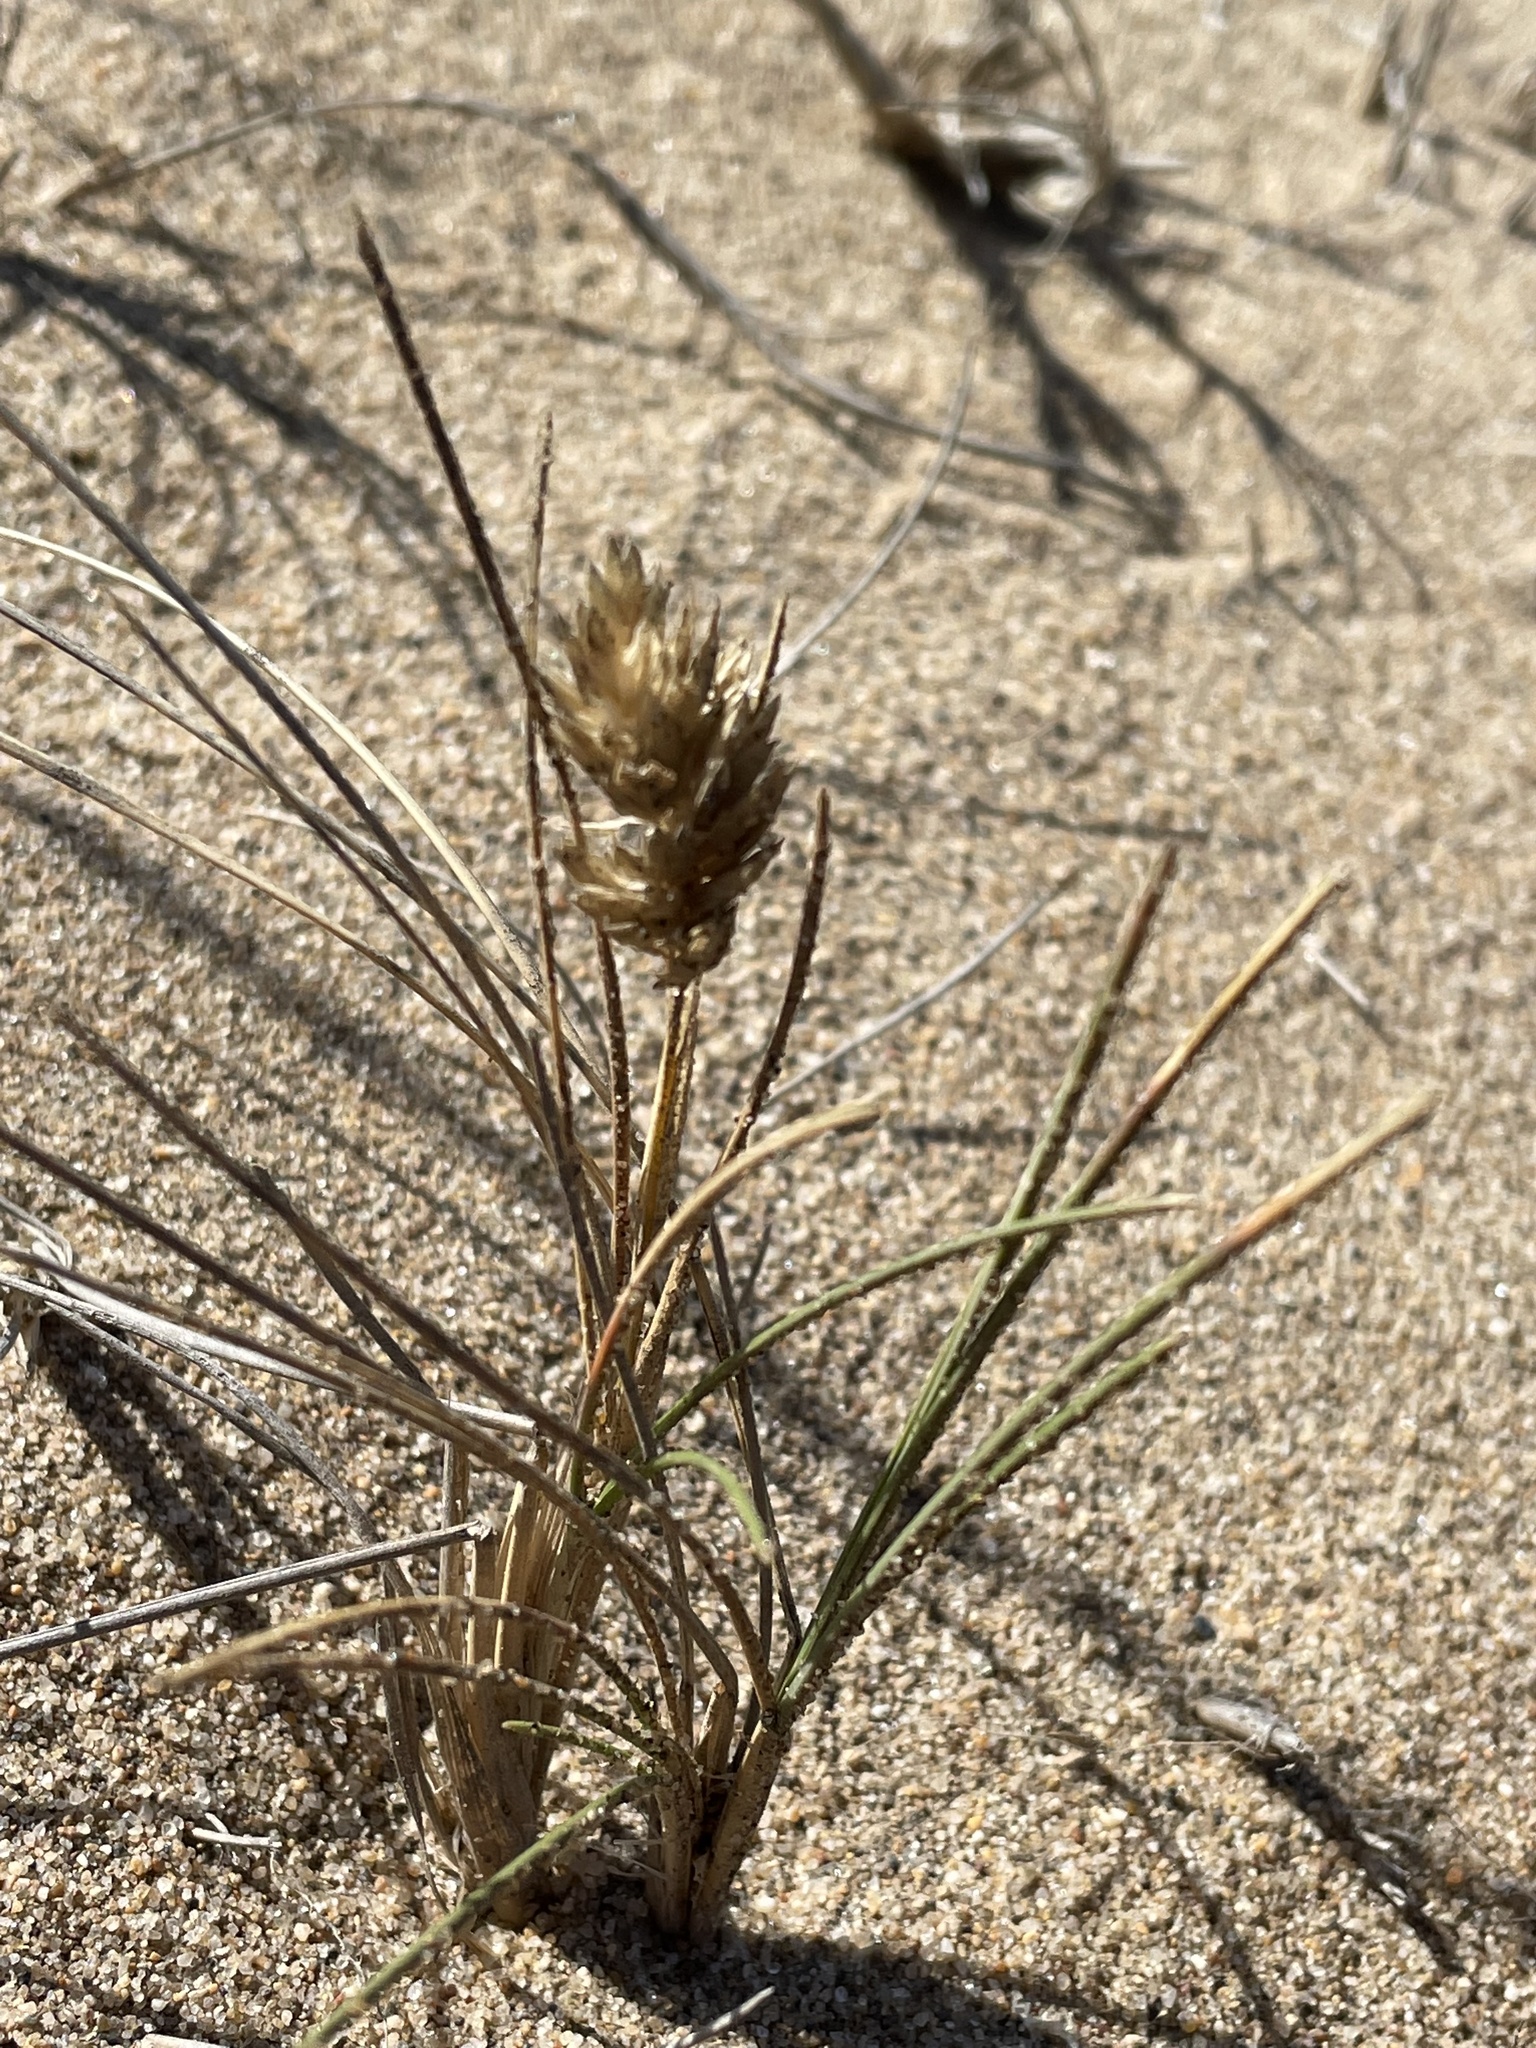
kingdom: Plantae
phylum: Tracheophyta
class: Liliopsida
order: Poales
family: Poaceae
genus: Poa
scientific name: Poa douglasii
